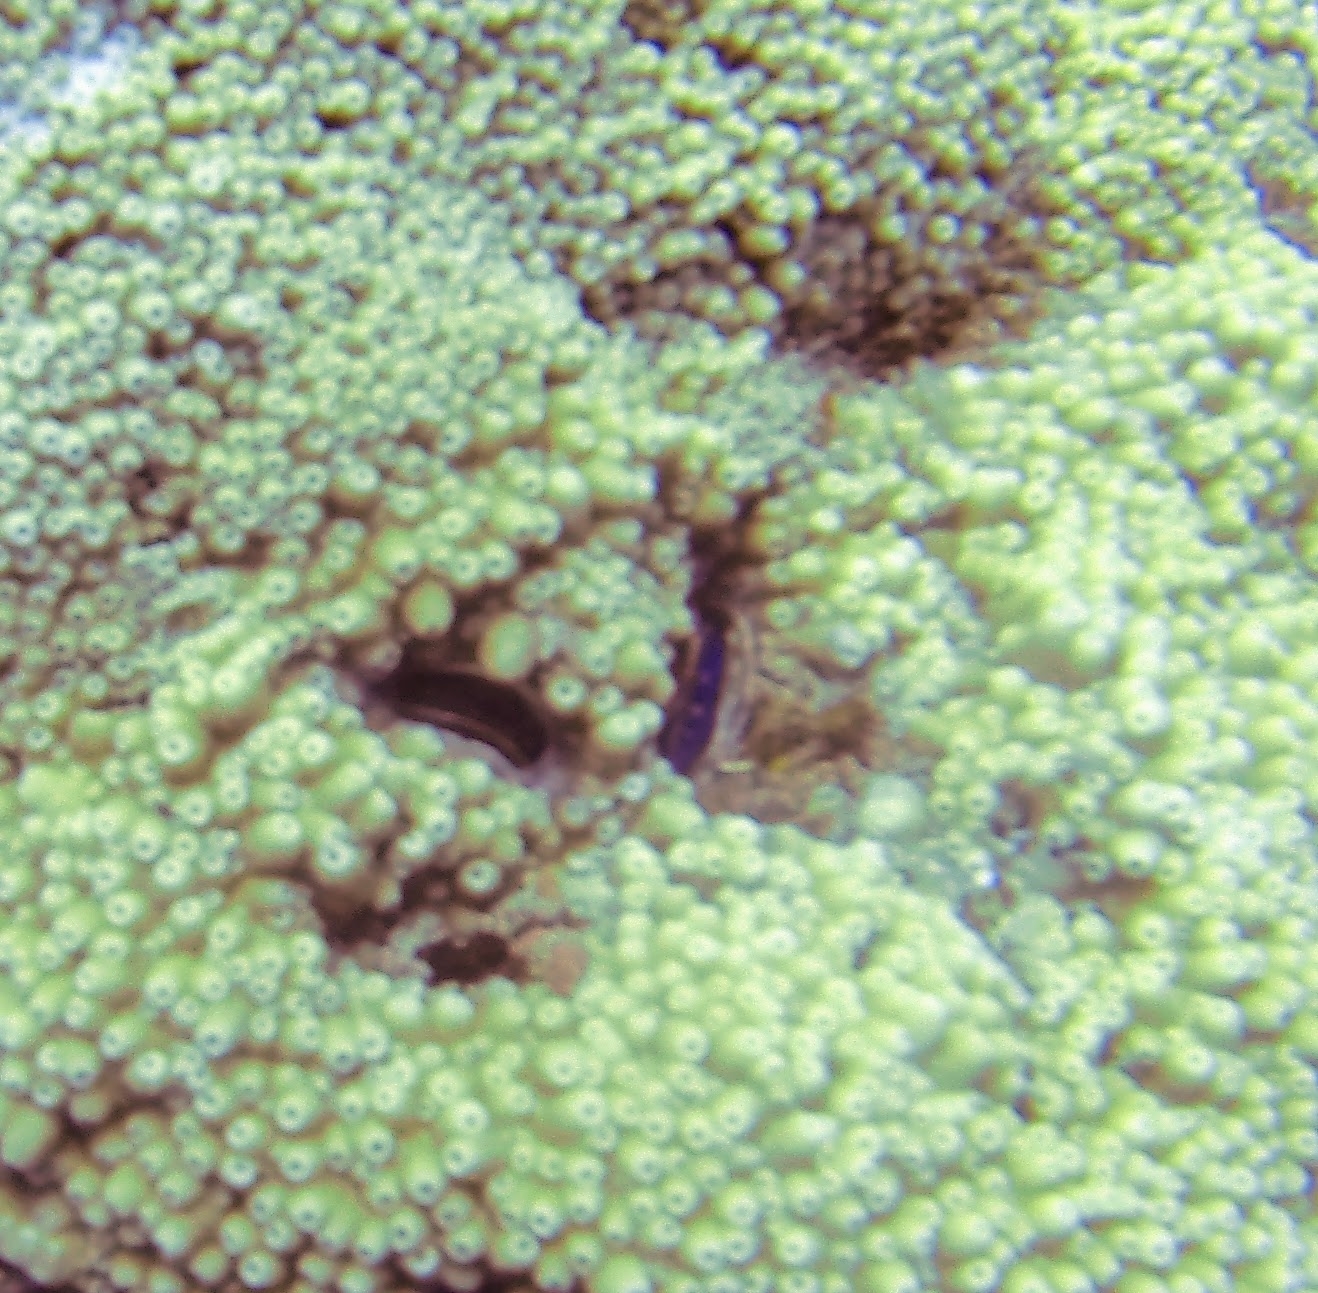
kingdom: Animalia
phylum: Mollusca
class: Bivalvia
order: Pectinida
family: Pectinidae
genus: Pedum
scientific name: Pedum spondyloideum
